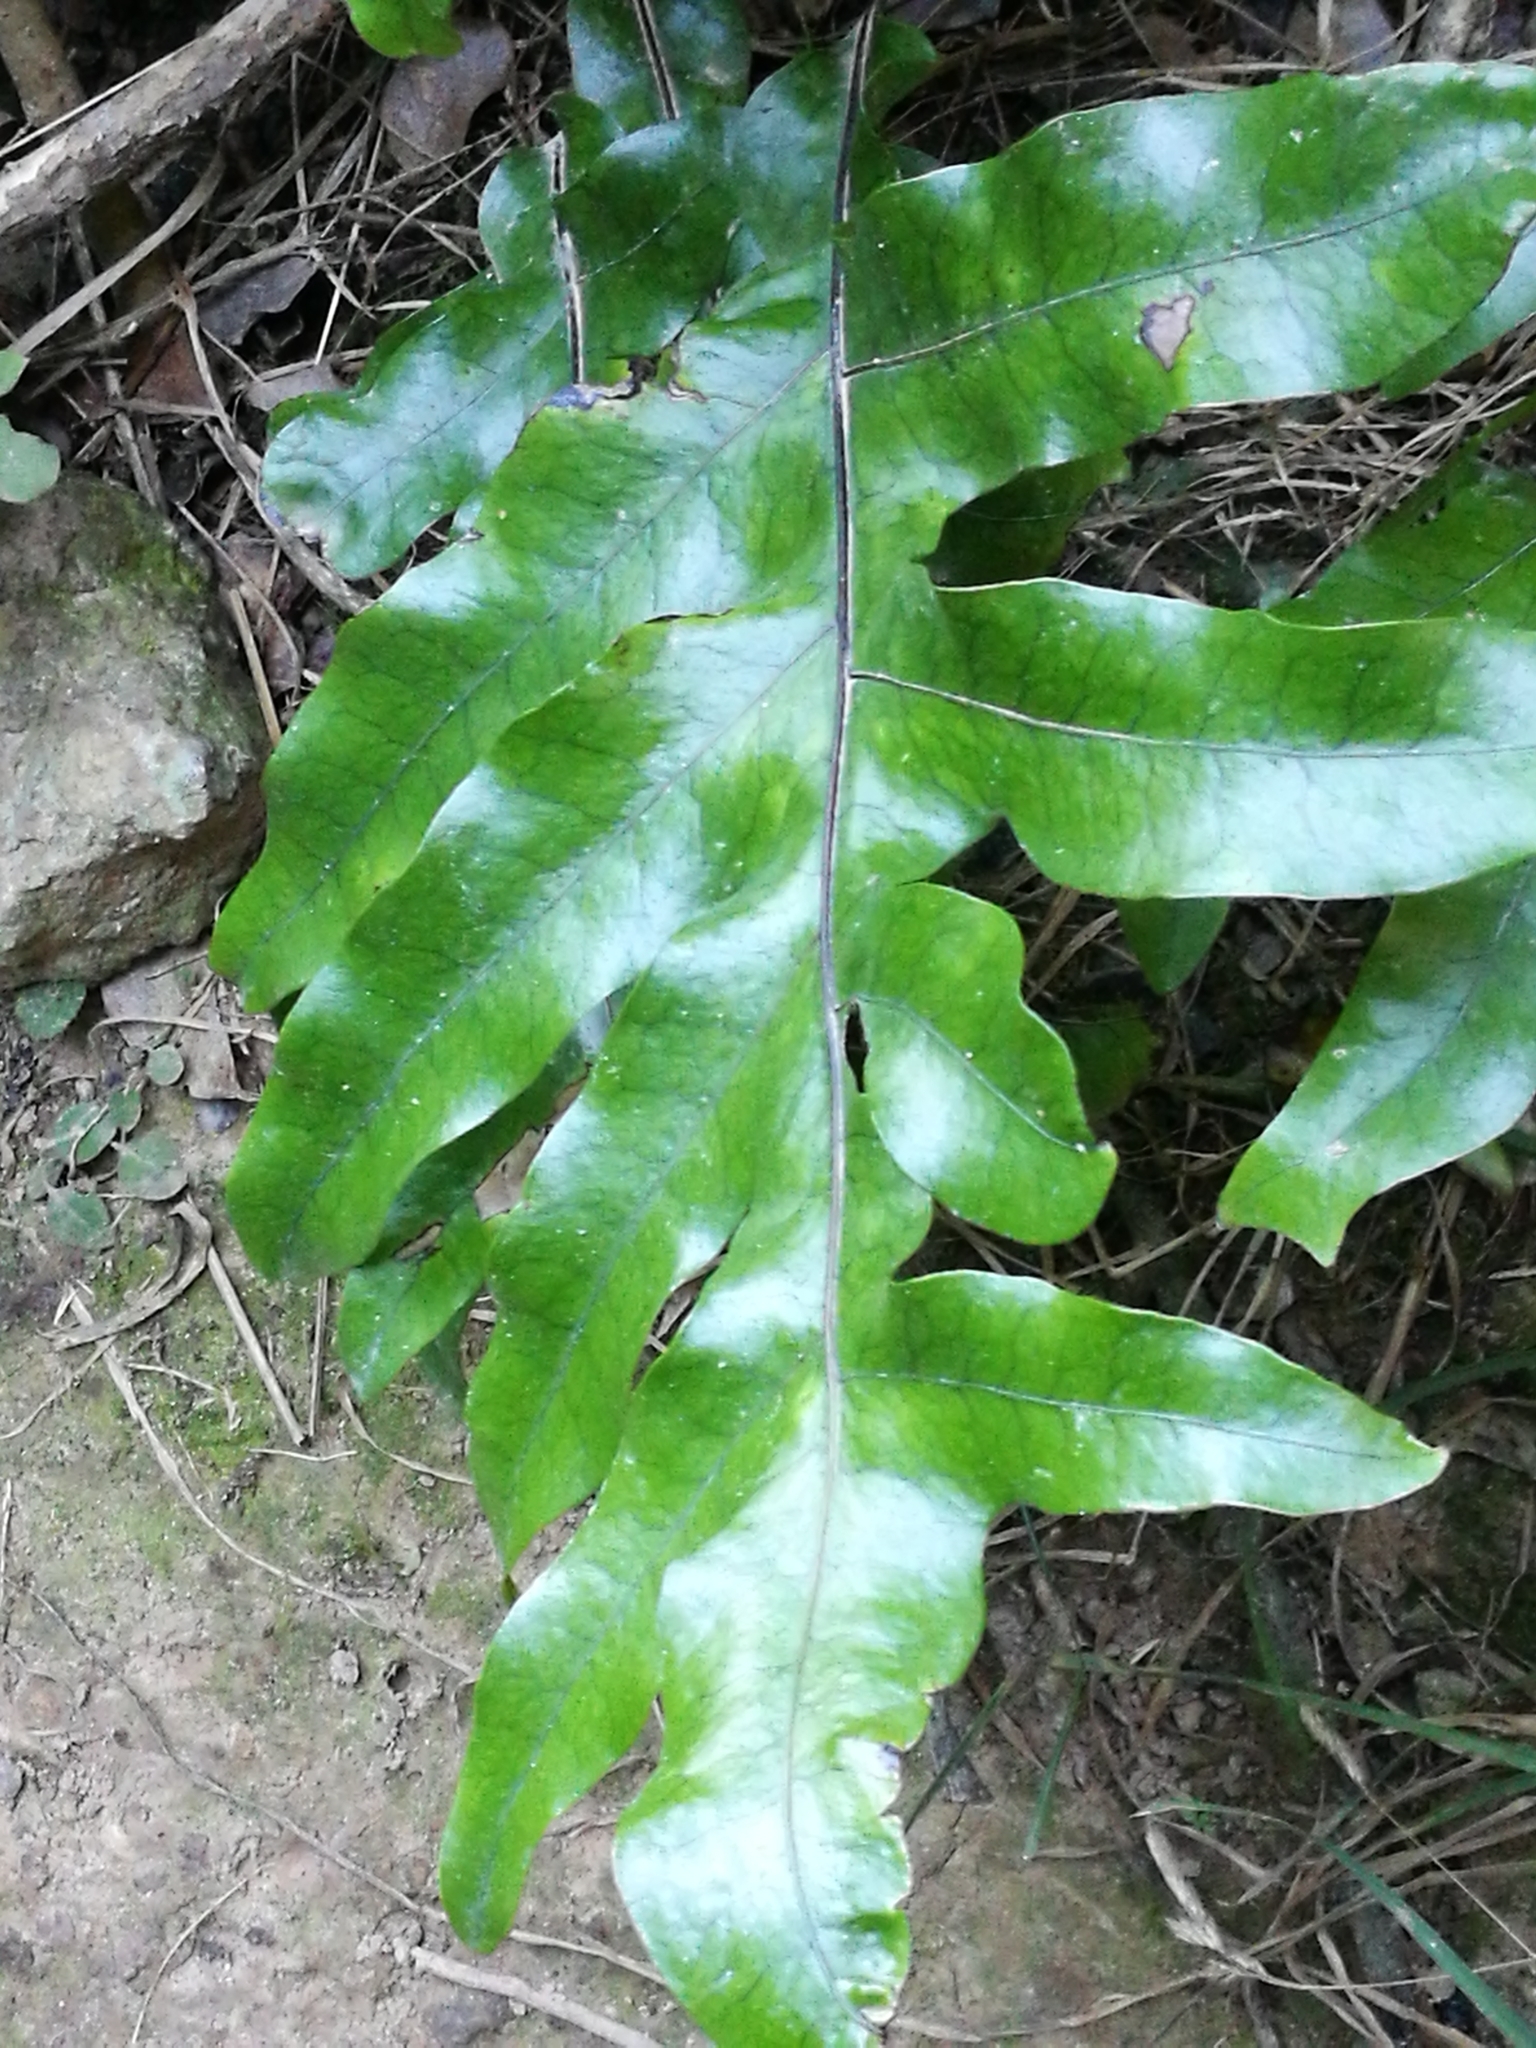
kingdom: Plantae
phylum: Tracheophyta
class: Polypodiopsida
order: Polypodiales
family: Polypodiaceae
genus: Lecanopteris
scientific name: Lecanopteris pustulata
